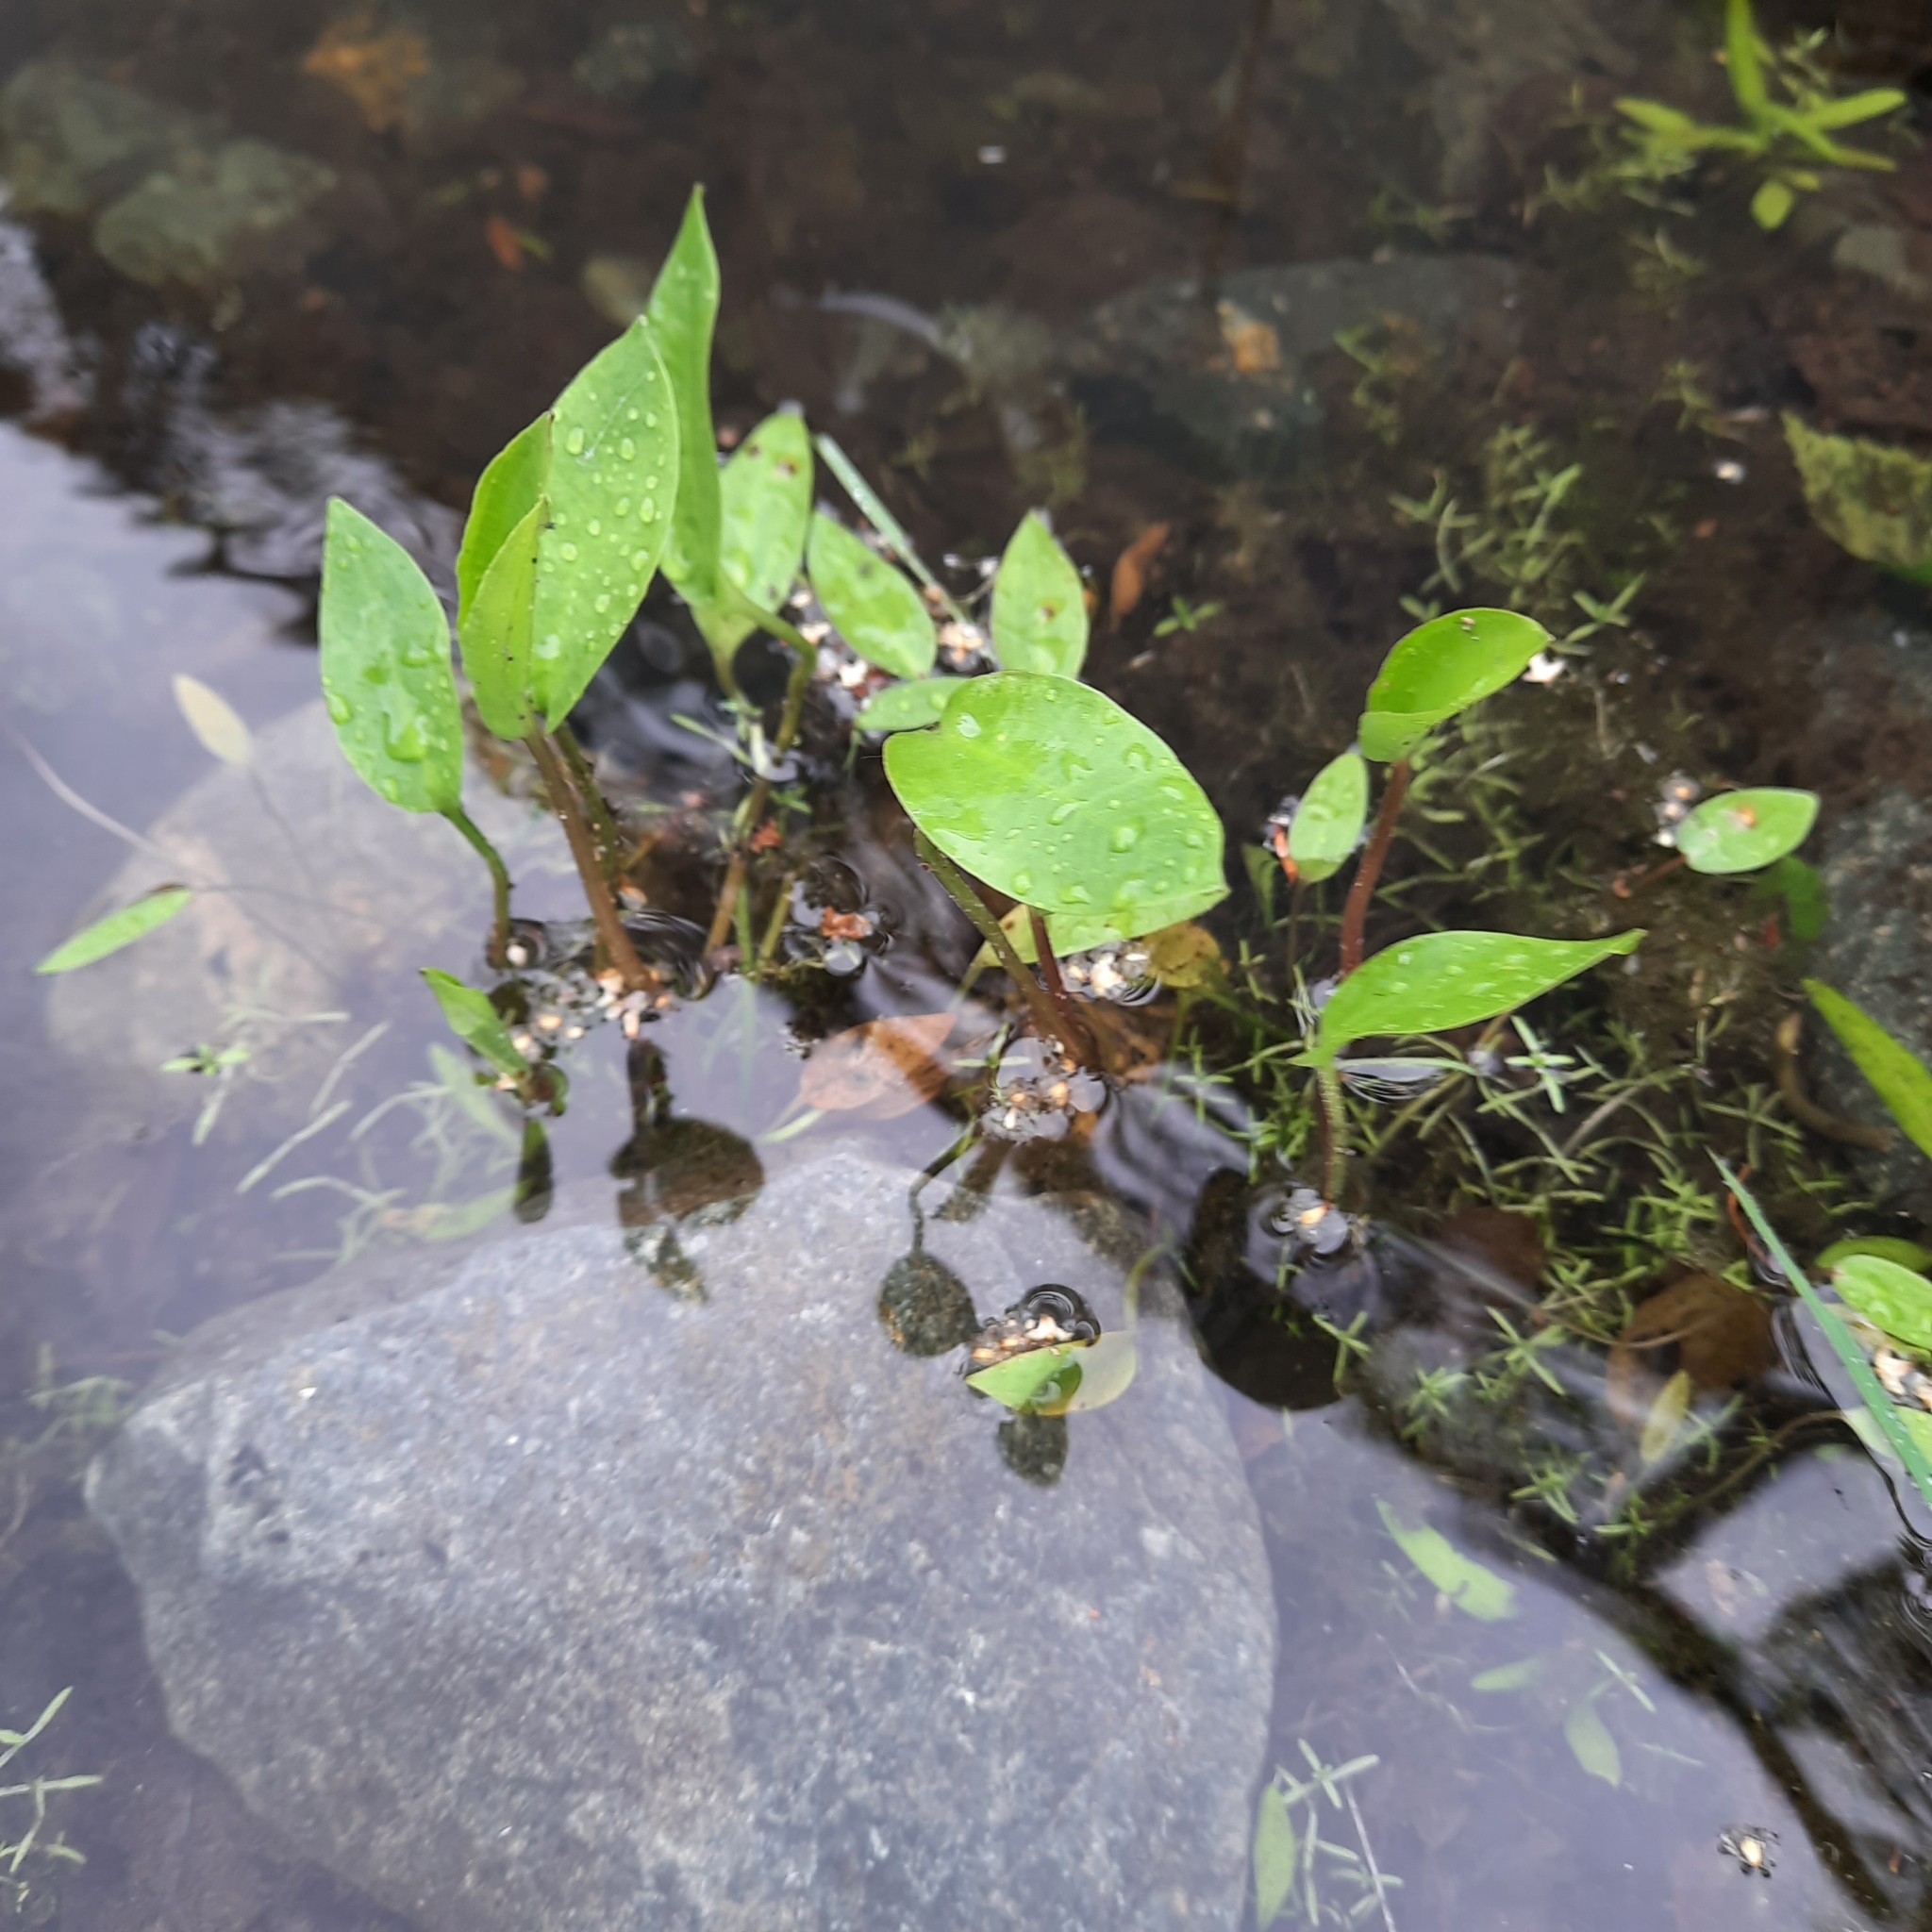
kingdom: Plantae
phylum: Tracheophyta
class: Liliopsida
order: Alismatales
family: Alismataceae
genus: Alisma
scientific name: Alisma plantago-aquatica
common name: Water-plantain
